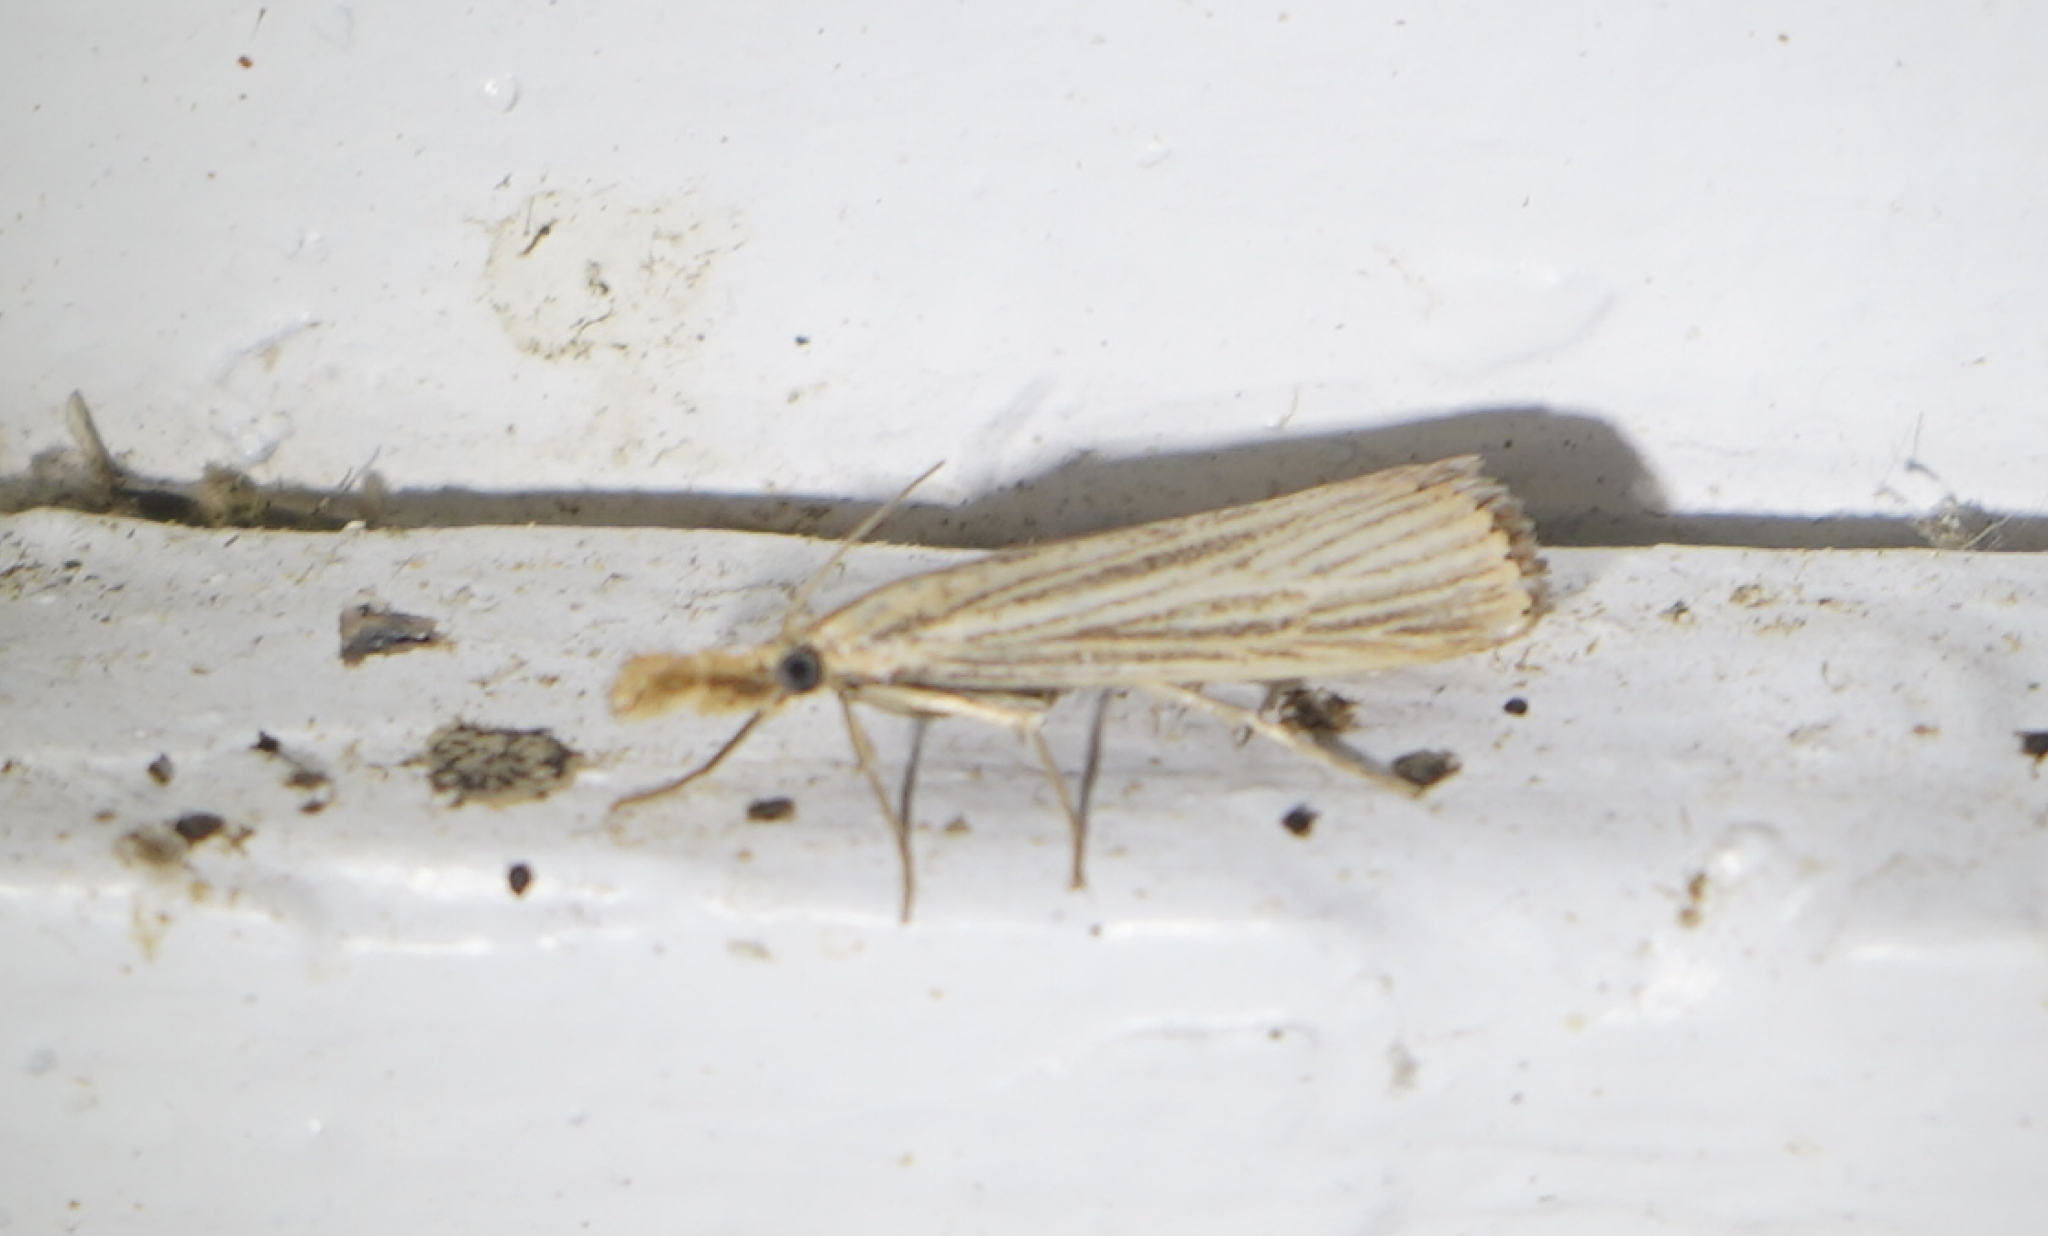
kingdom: Animalia
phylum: Arthropoda
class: Insecta
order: Lepidoptera
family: Crambidae
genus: Agriphila
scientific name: Agriphila vulgivagellus
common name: Vagabond crambus moth
